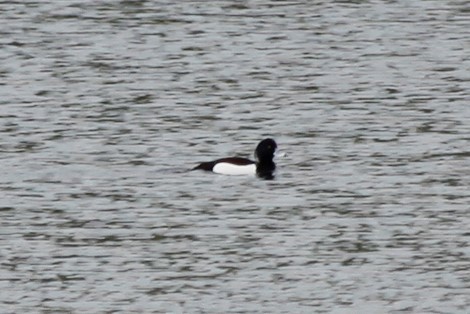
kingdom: Animalia
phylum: Chordata
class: Aves
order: Anseriformes
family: Anatidae
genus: Aythya
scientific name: Aythya fuligula
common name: Tufted duck
